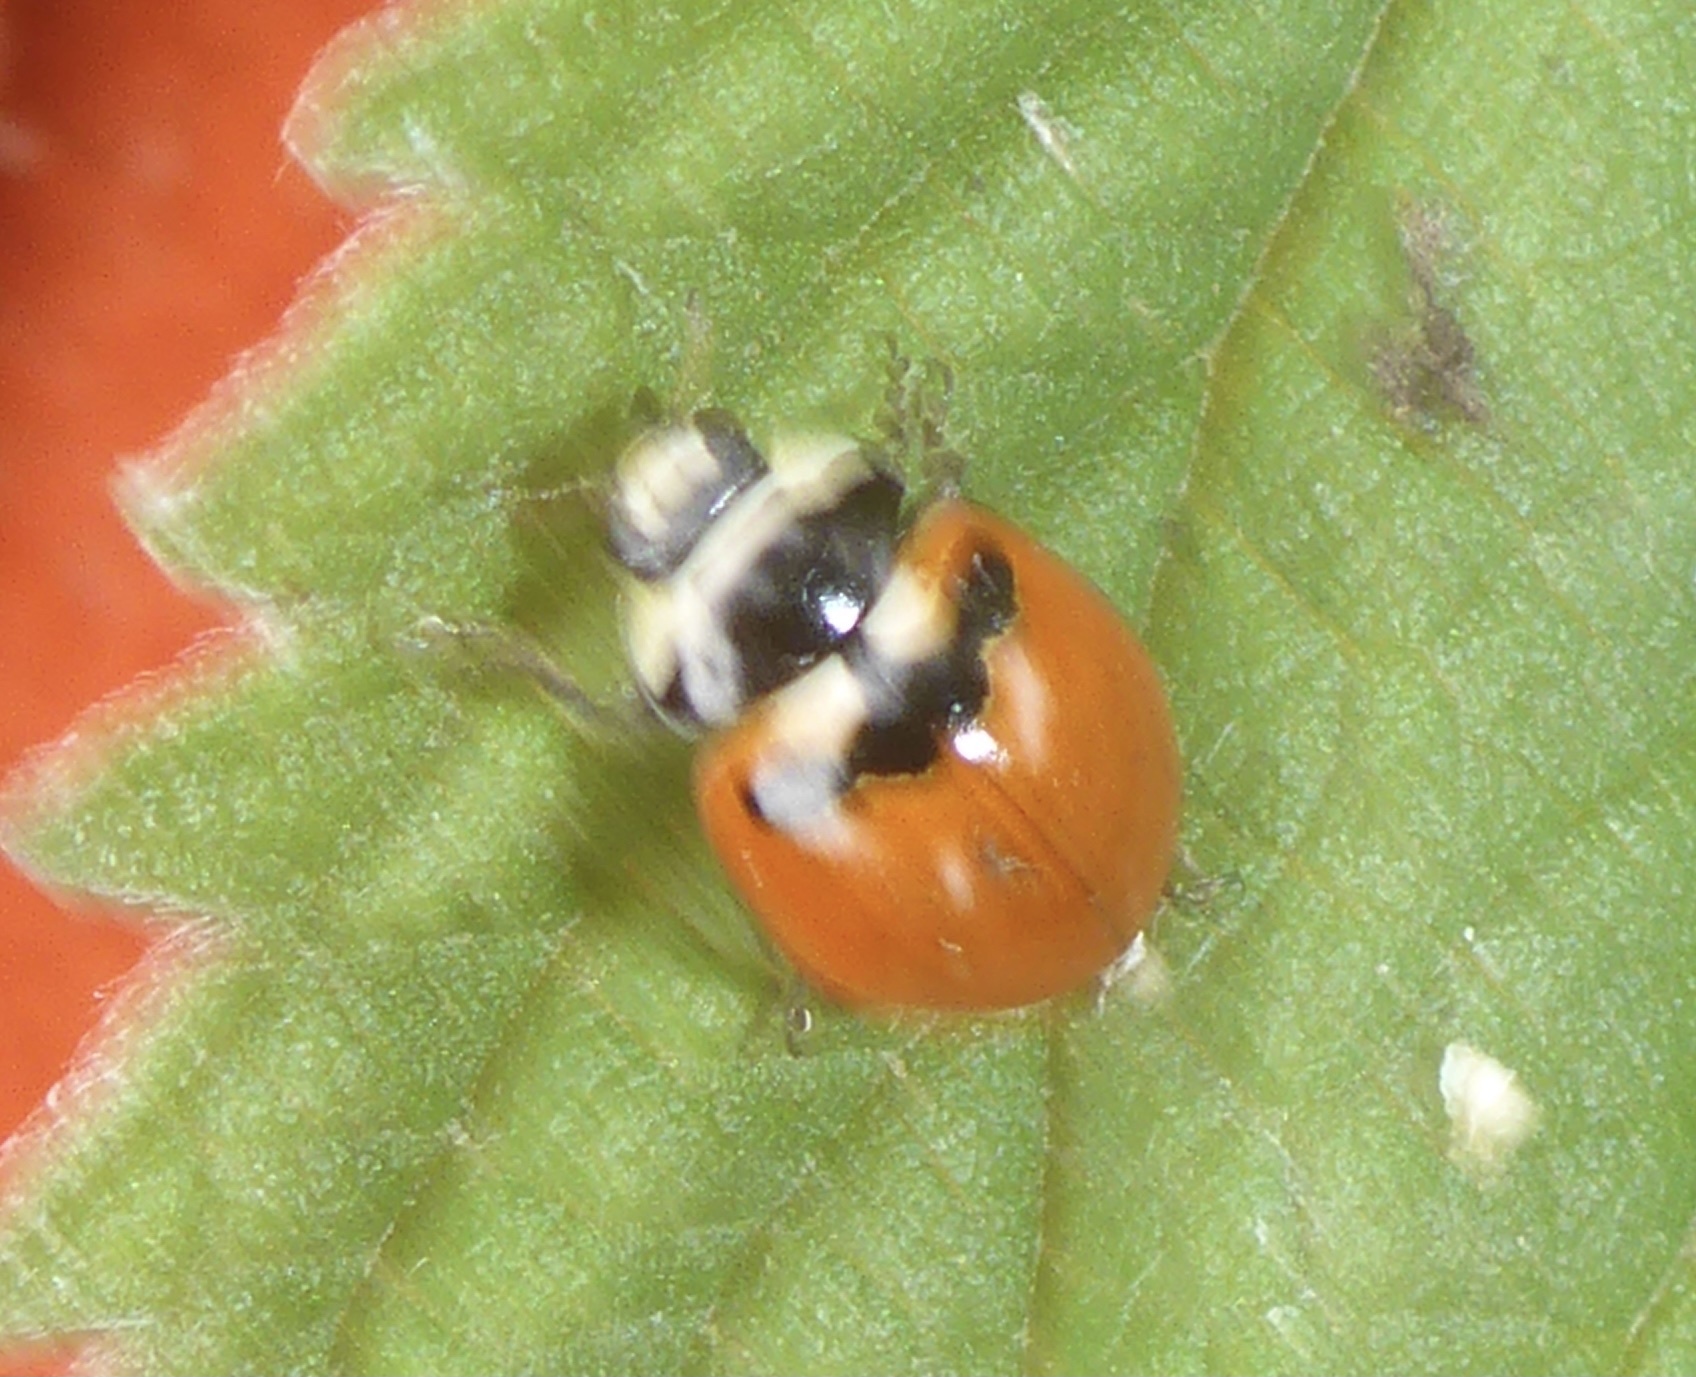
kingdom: Animalia
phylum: Arthropoda
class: Insecta
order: Coleoptera
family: Coccinellidae
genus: Coccinella
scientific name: Coccinella trifasciata
